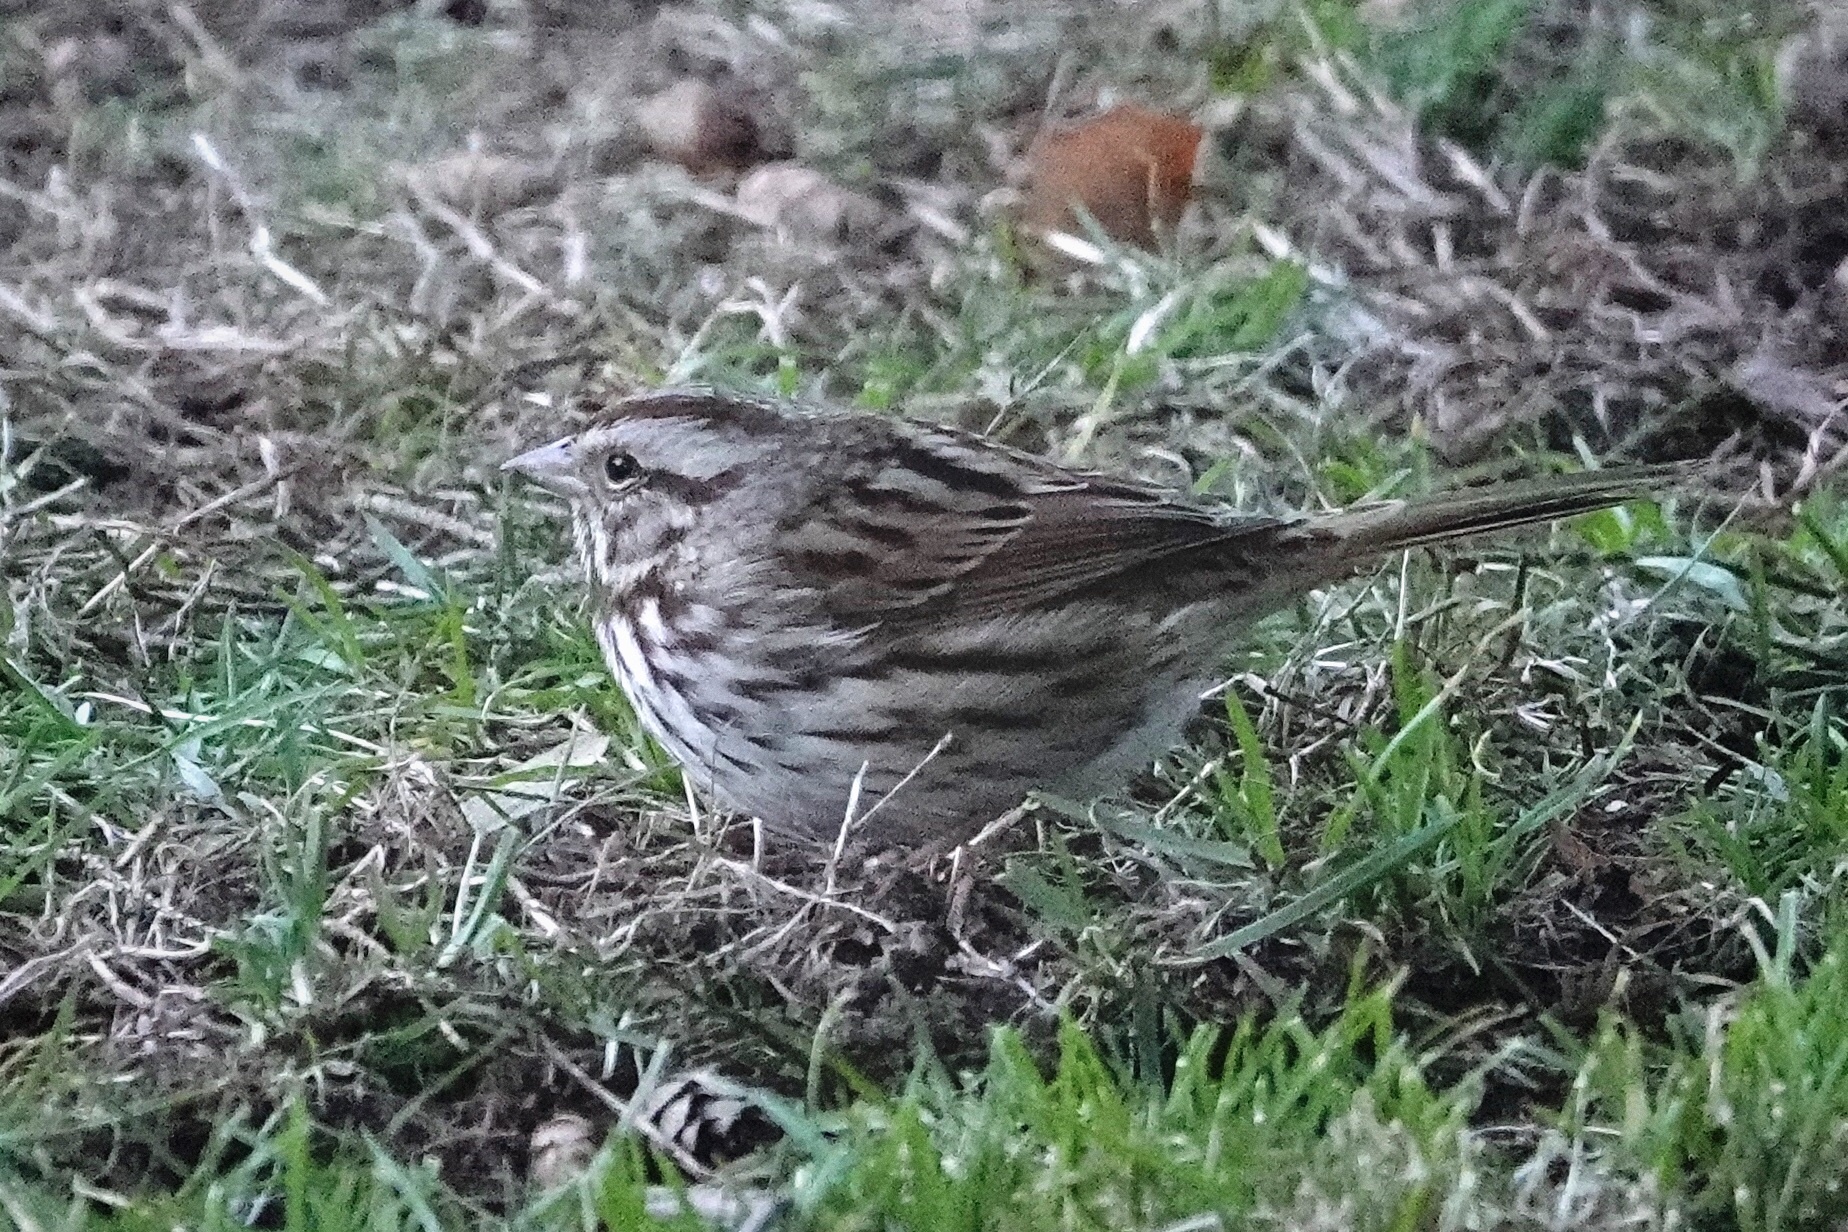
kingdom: Animalia
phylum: Chordata
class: Aves
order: Passeriformes
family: Passerellidae
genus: Melospiza
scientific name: Melospiza melodia
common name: Song sparrow
